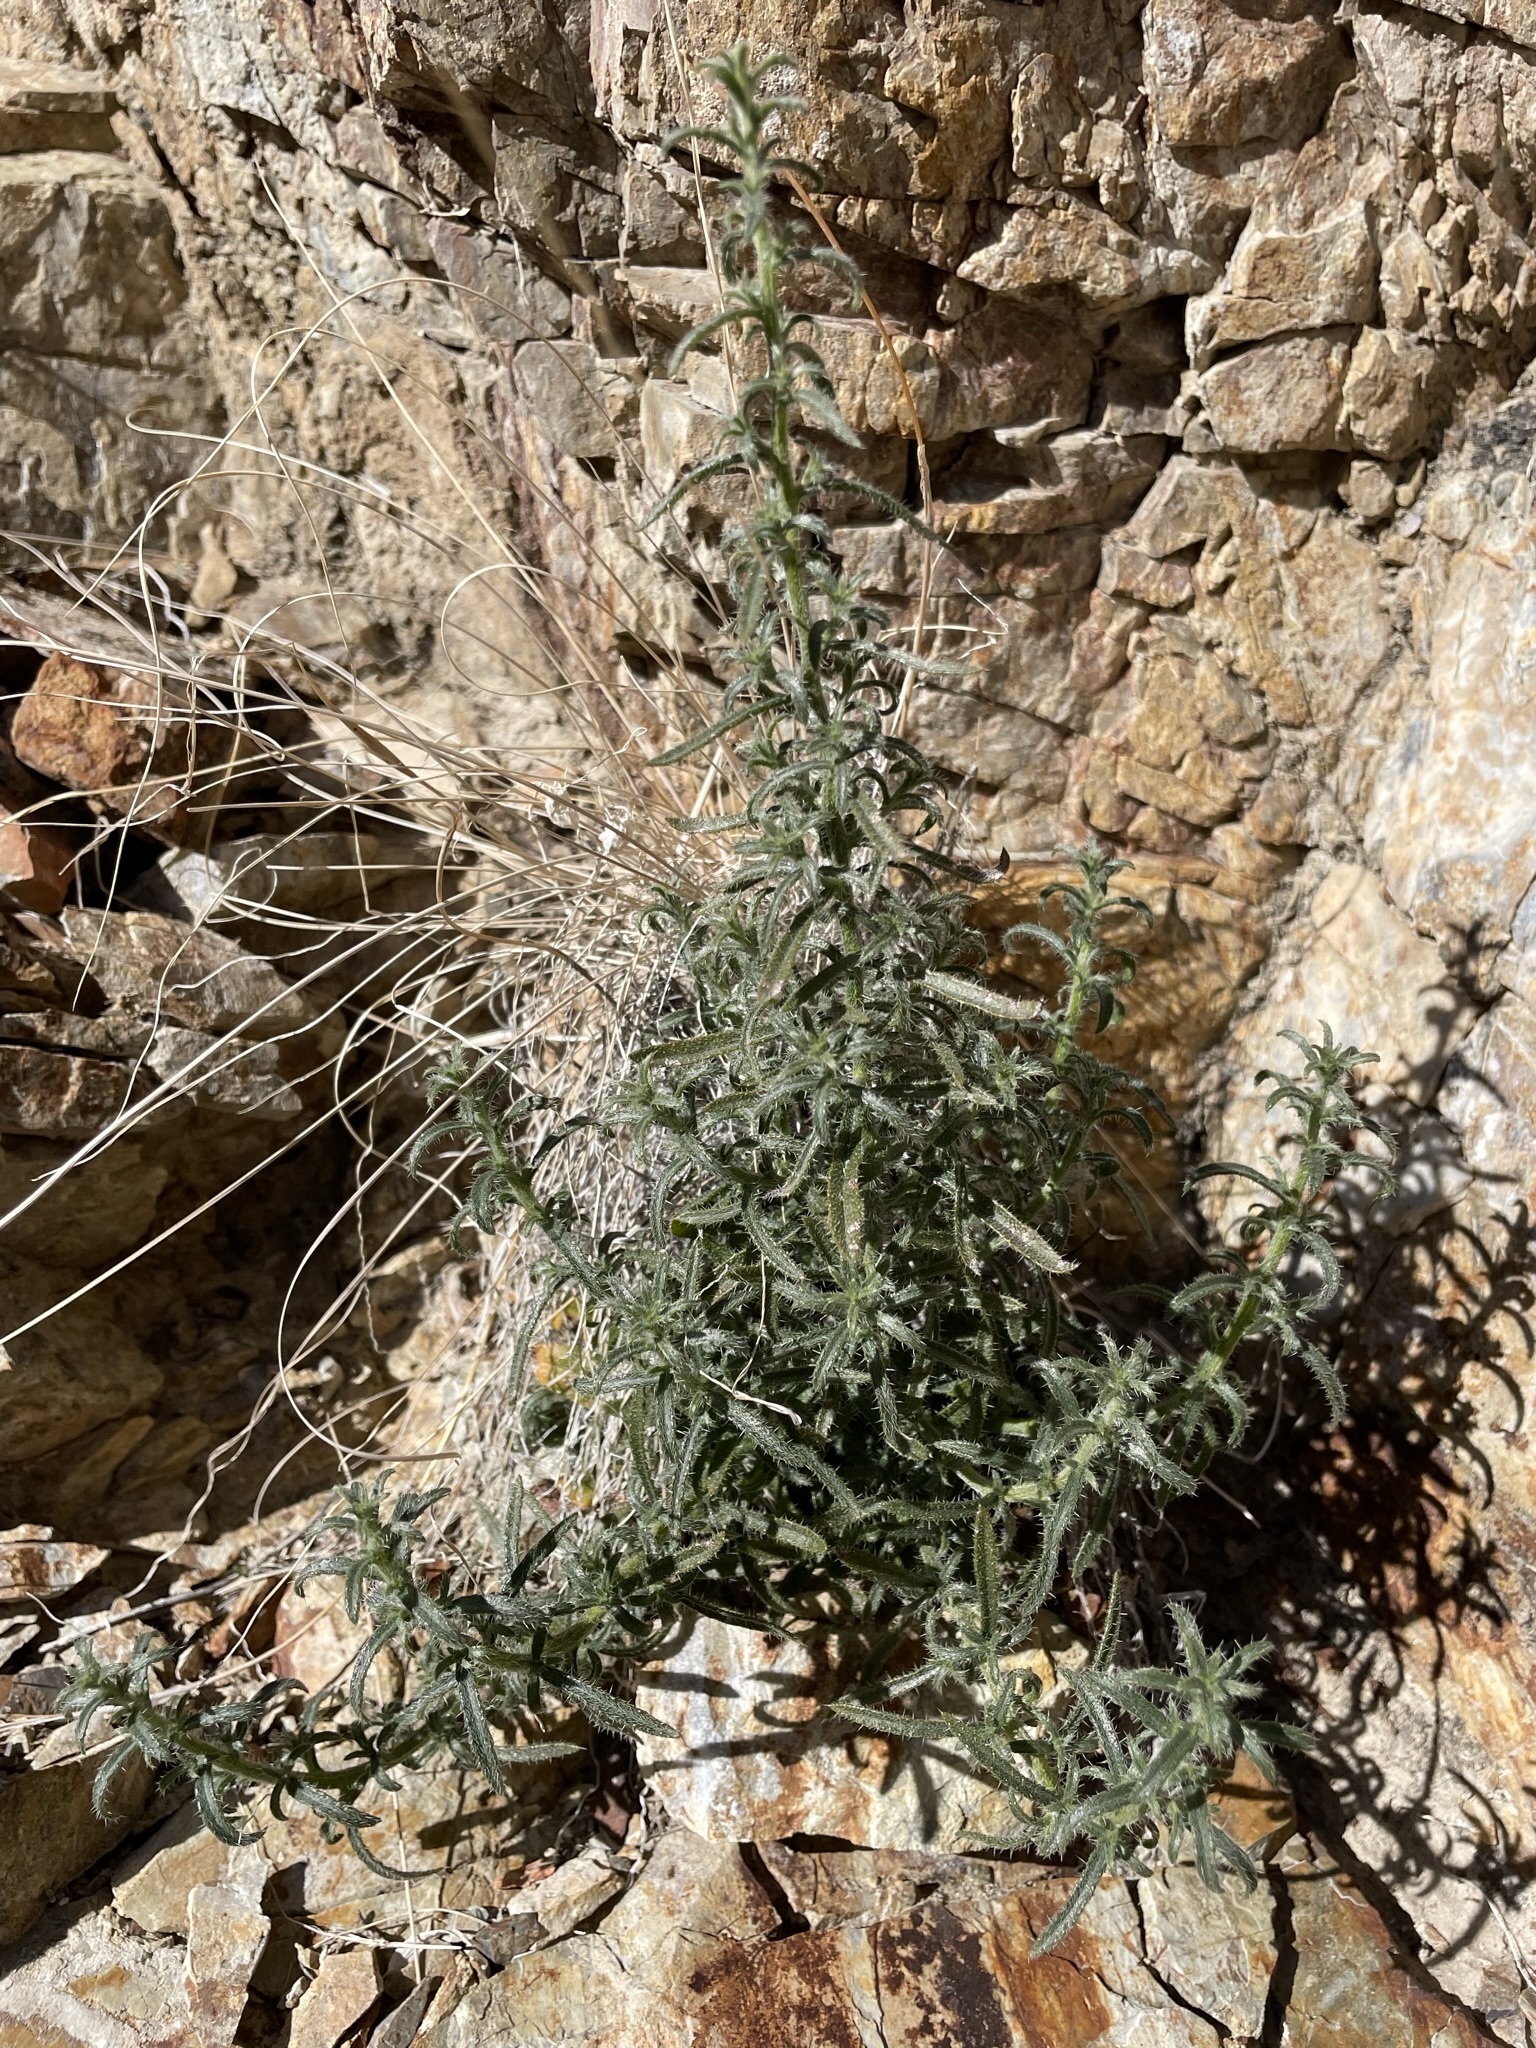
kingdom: Plantae
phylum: Tracheophyta
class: Magnoliopsida
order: Boraginales
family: Boraginaceae
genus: Johnstonella
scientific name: Johnstonella racemosa
